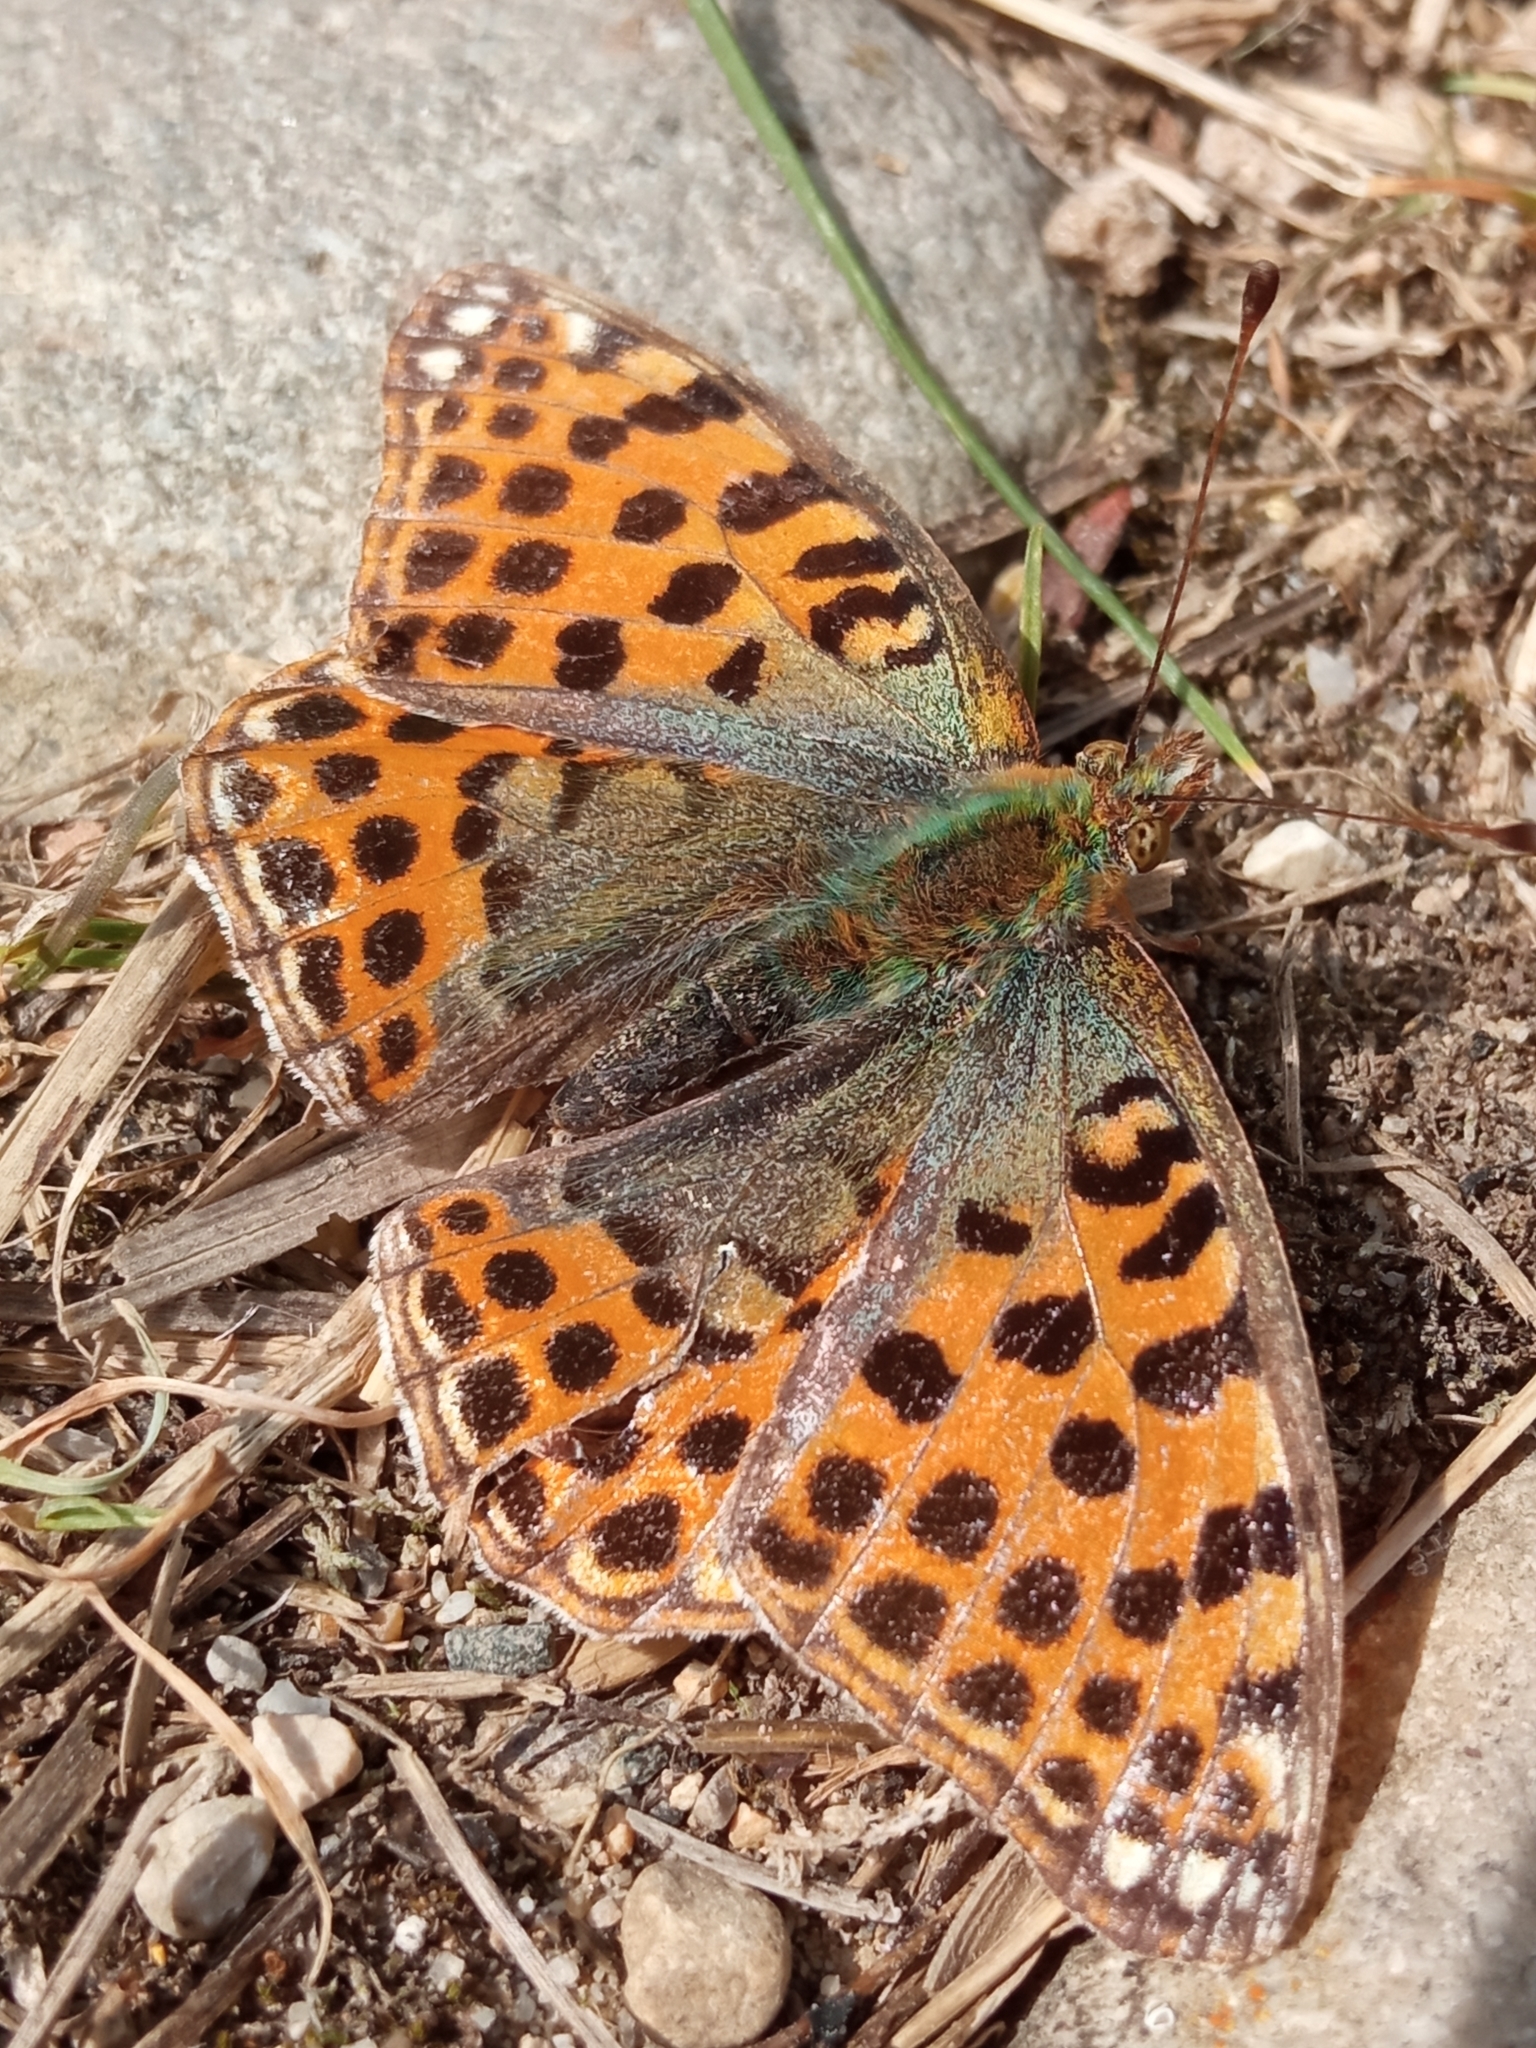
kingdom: Animalia
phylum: Arthropoda
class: Insecta
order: Lepidoptera
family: Nymphalidae
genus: Issoria
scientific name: Issoria lathonia
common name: Queen of spain fritillary
